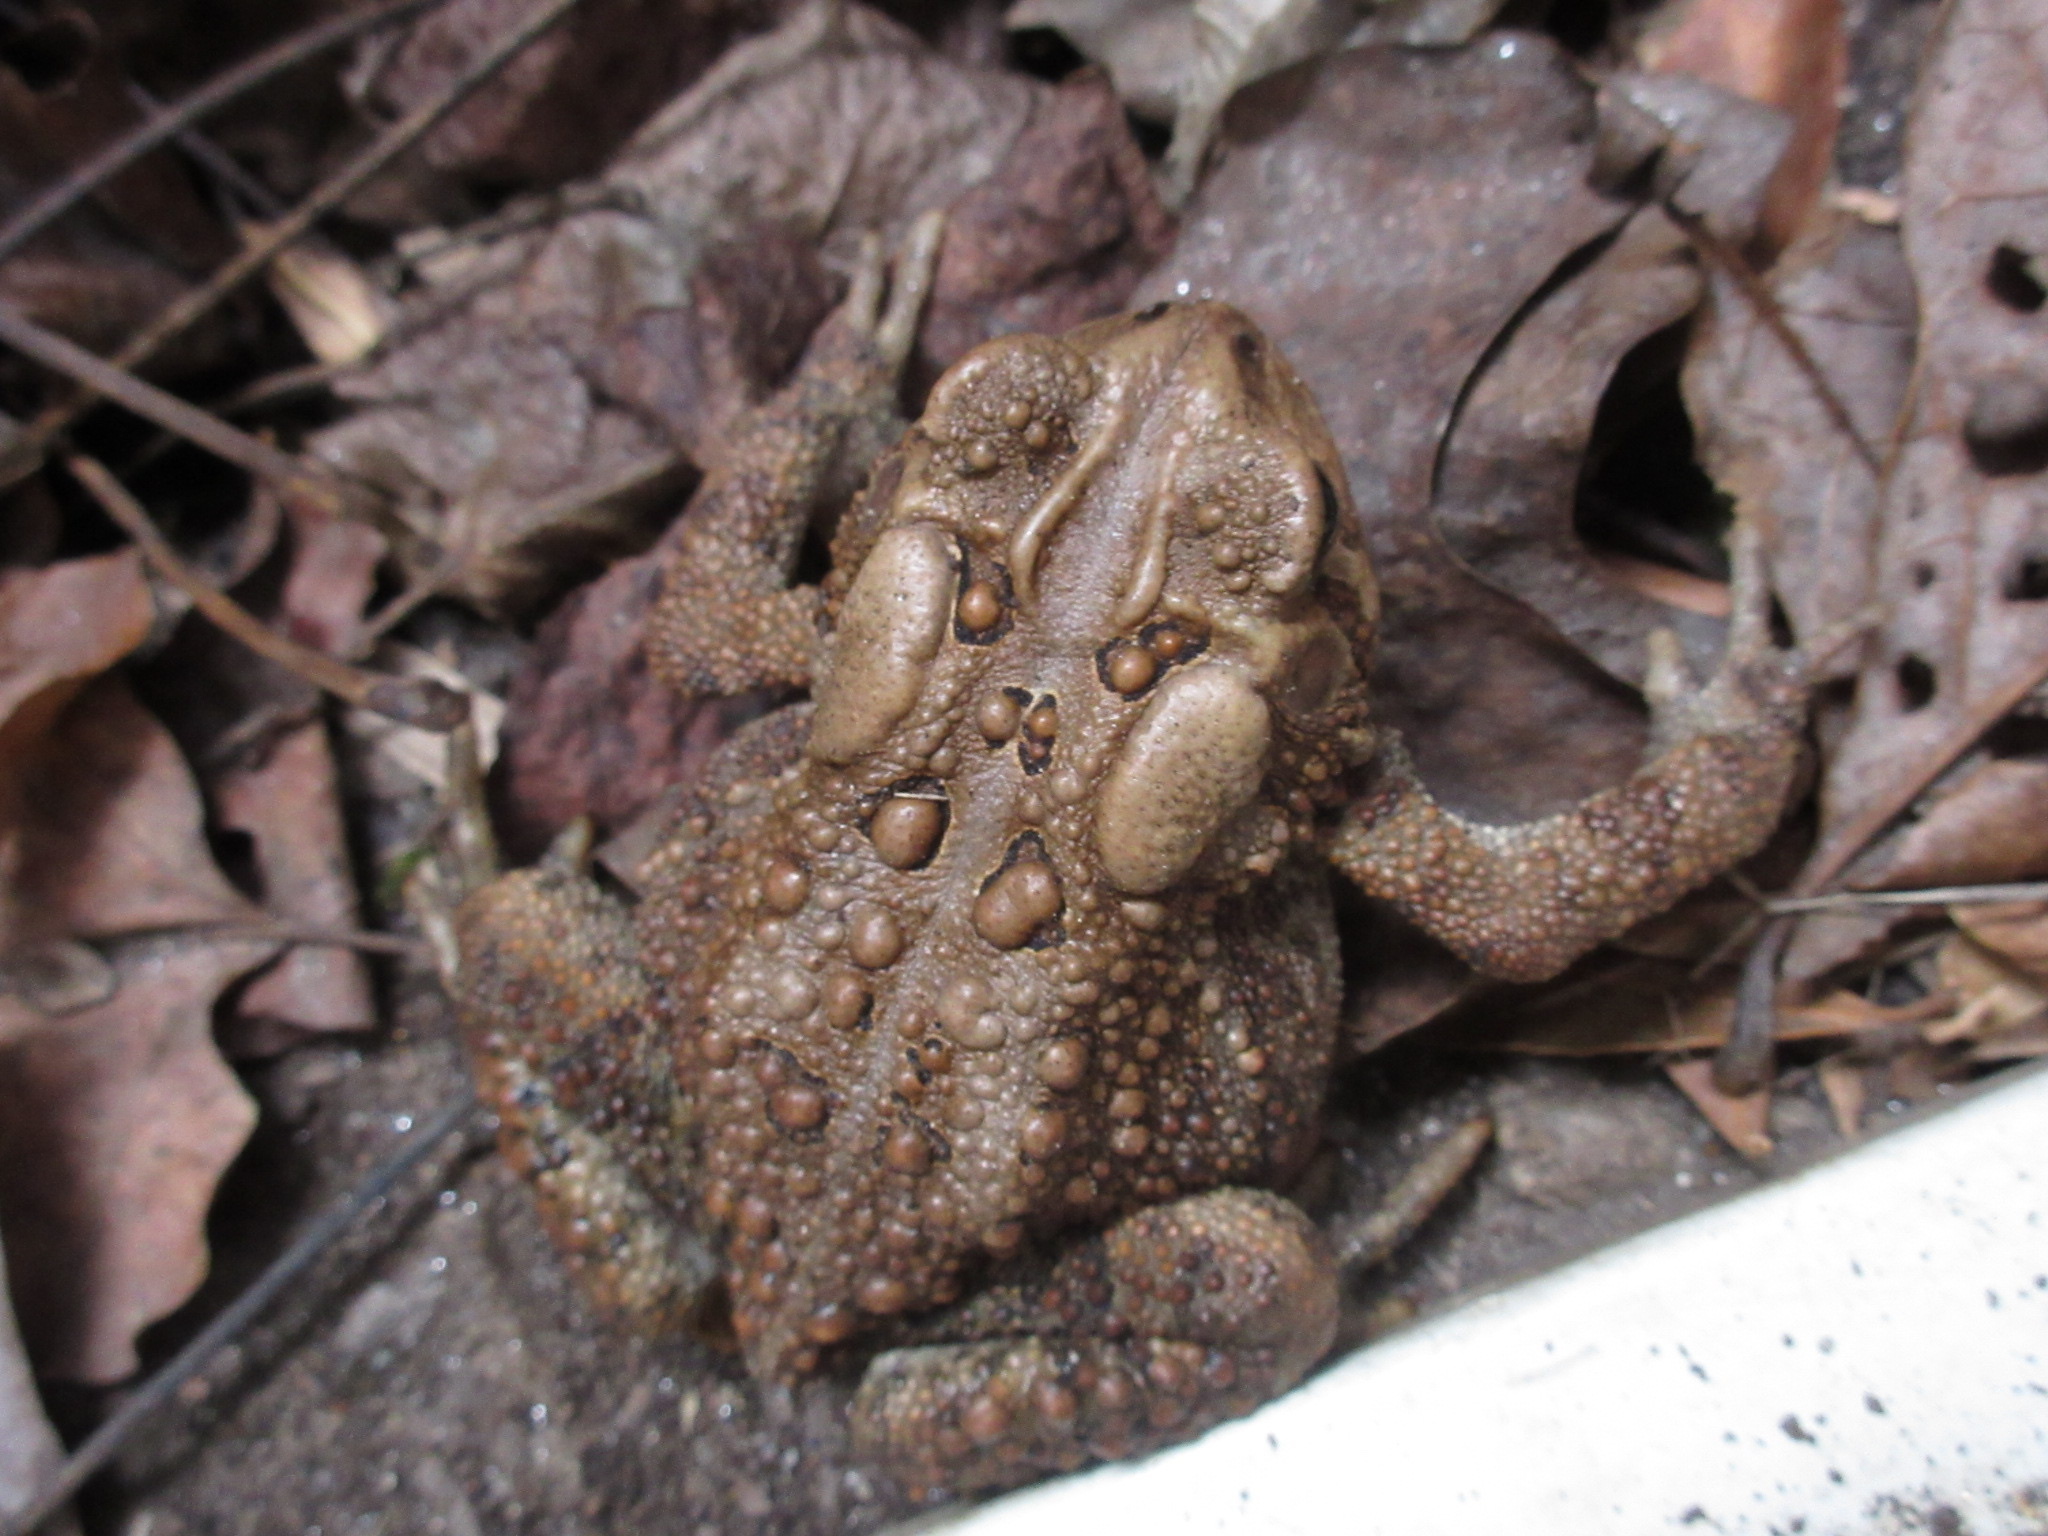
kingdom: Animalia
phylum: Chordata
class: Amphibia
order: Anura
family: Bufonidae
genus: Anaxyrus
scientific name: Anaxyrus americanus
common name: American toad
